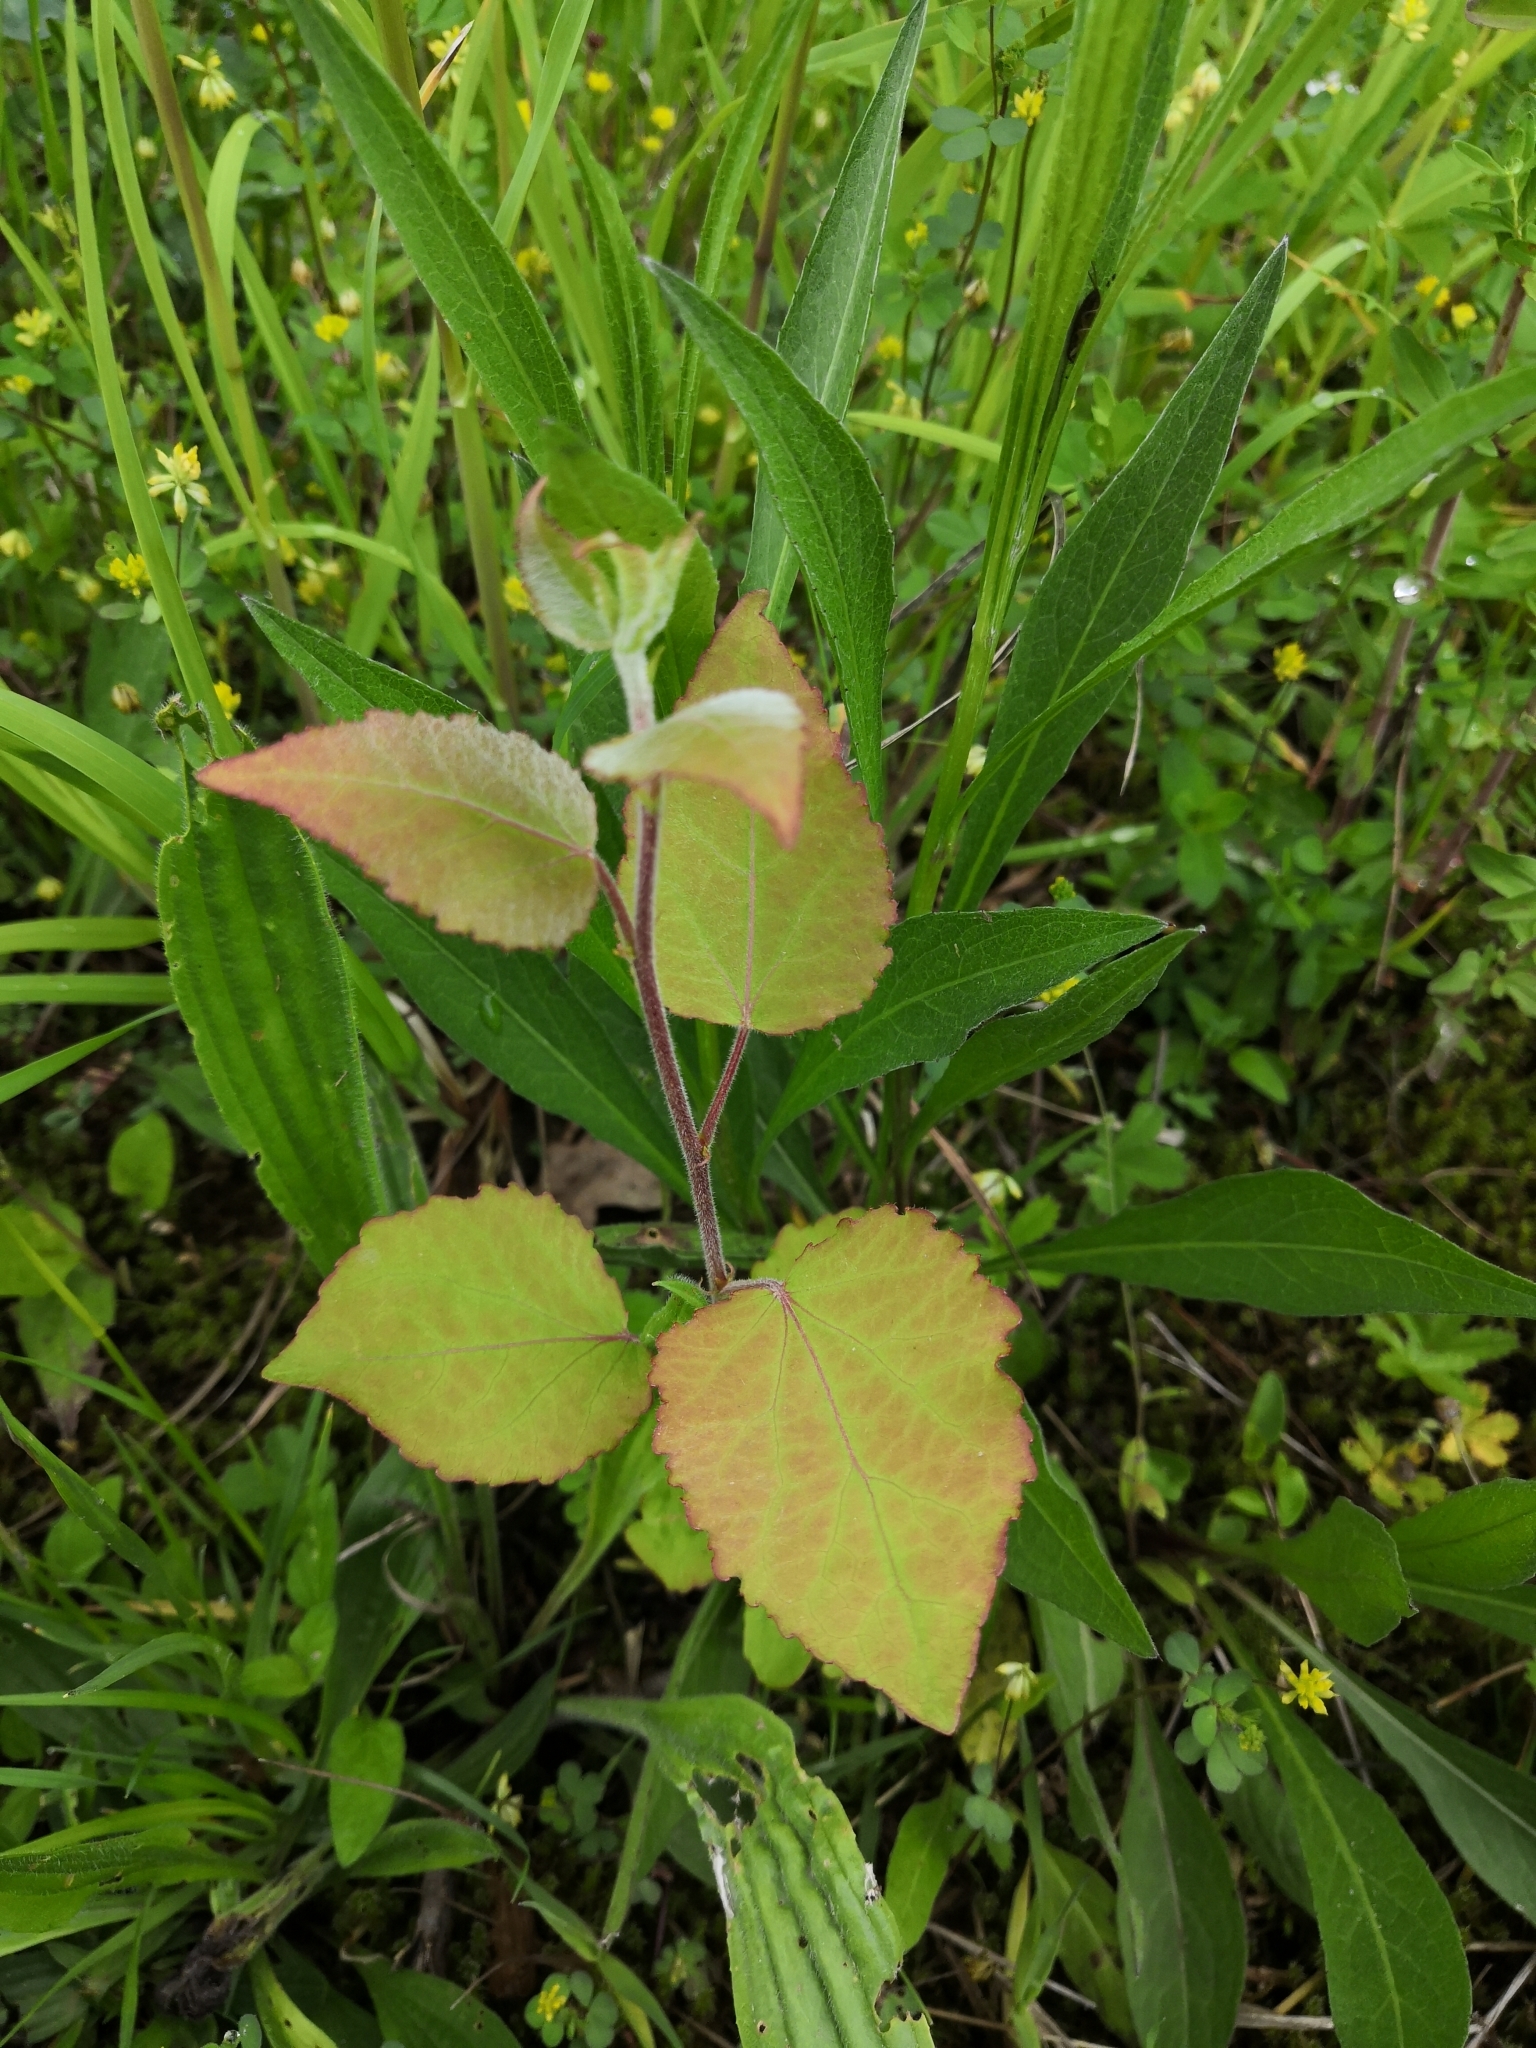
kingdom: Plantae
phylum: Tracheophyta
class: Magnoliopsida
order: Malpighiales
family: Salicaceae
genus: Populus
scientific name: Populus tremula
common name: European aspen
